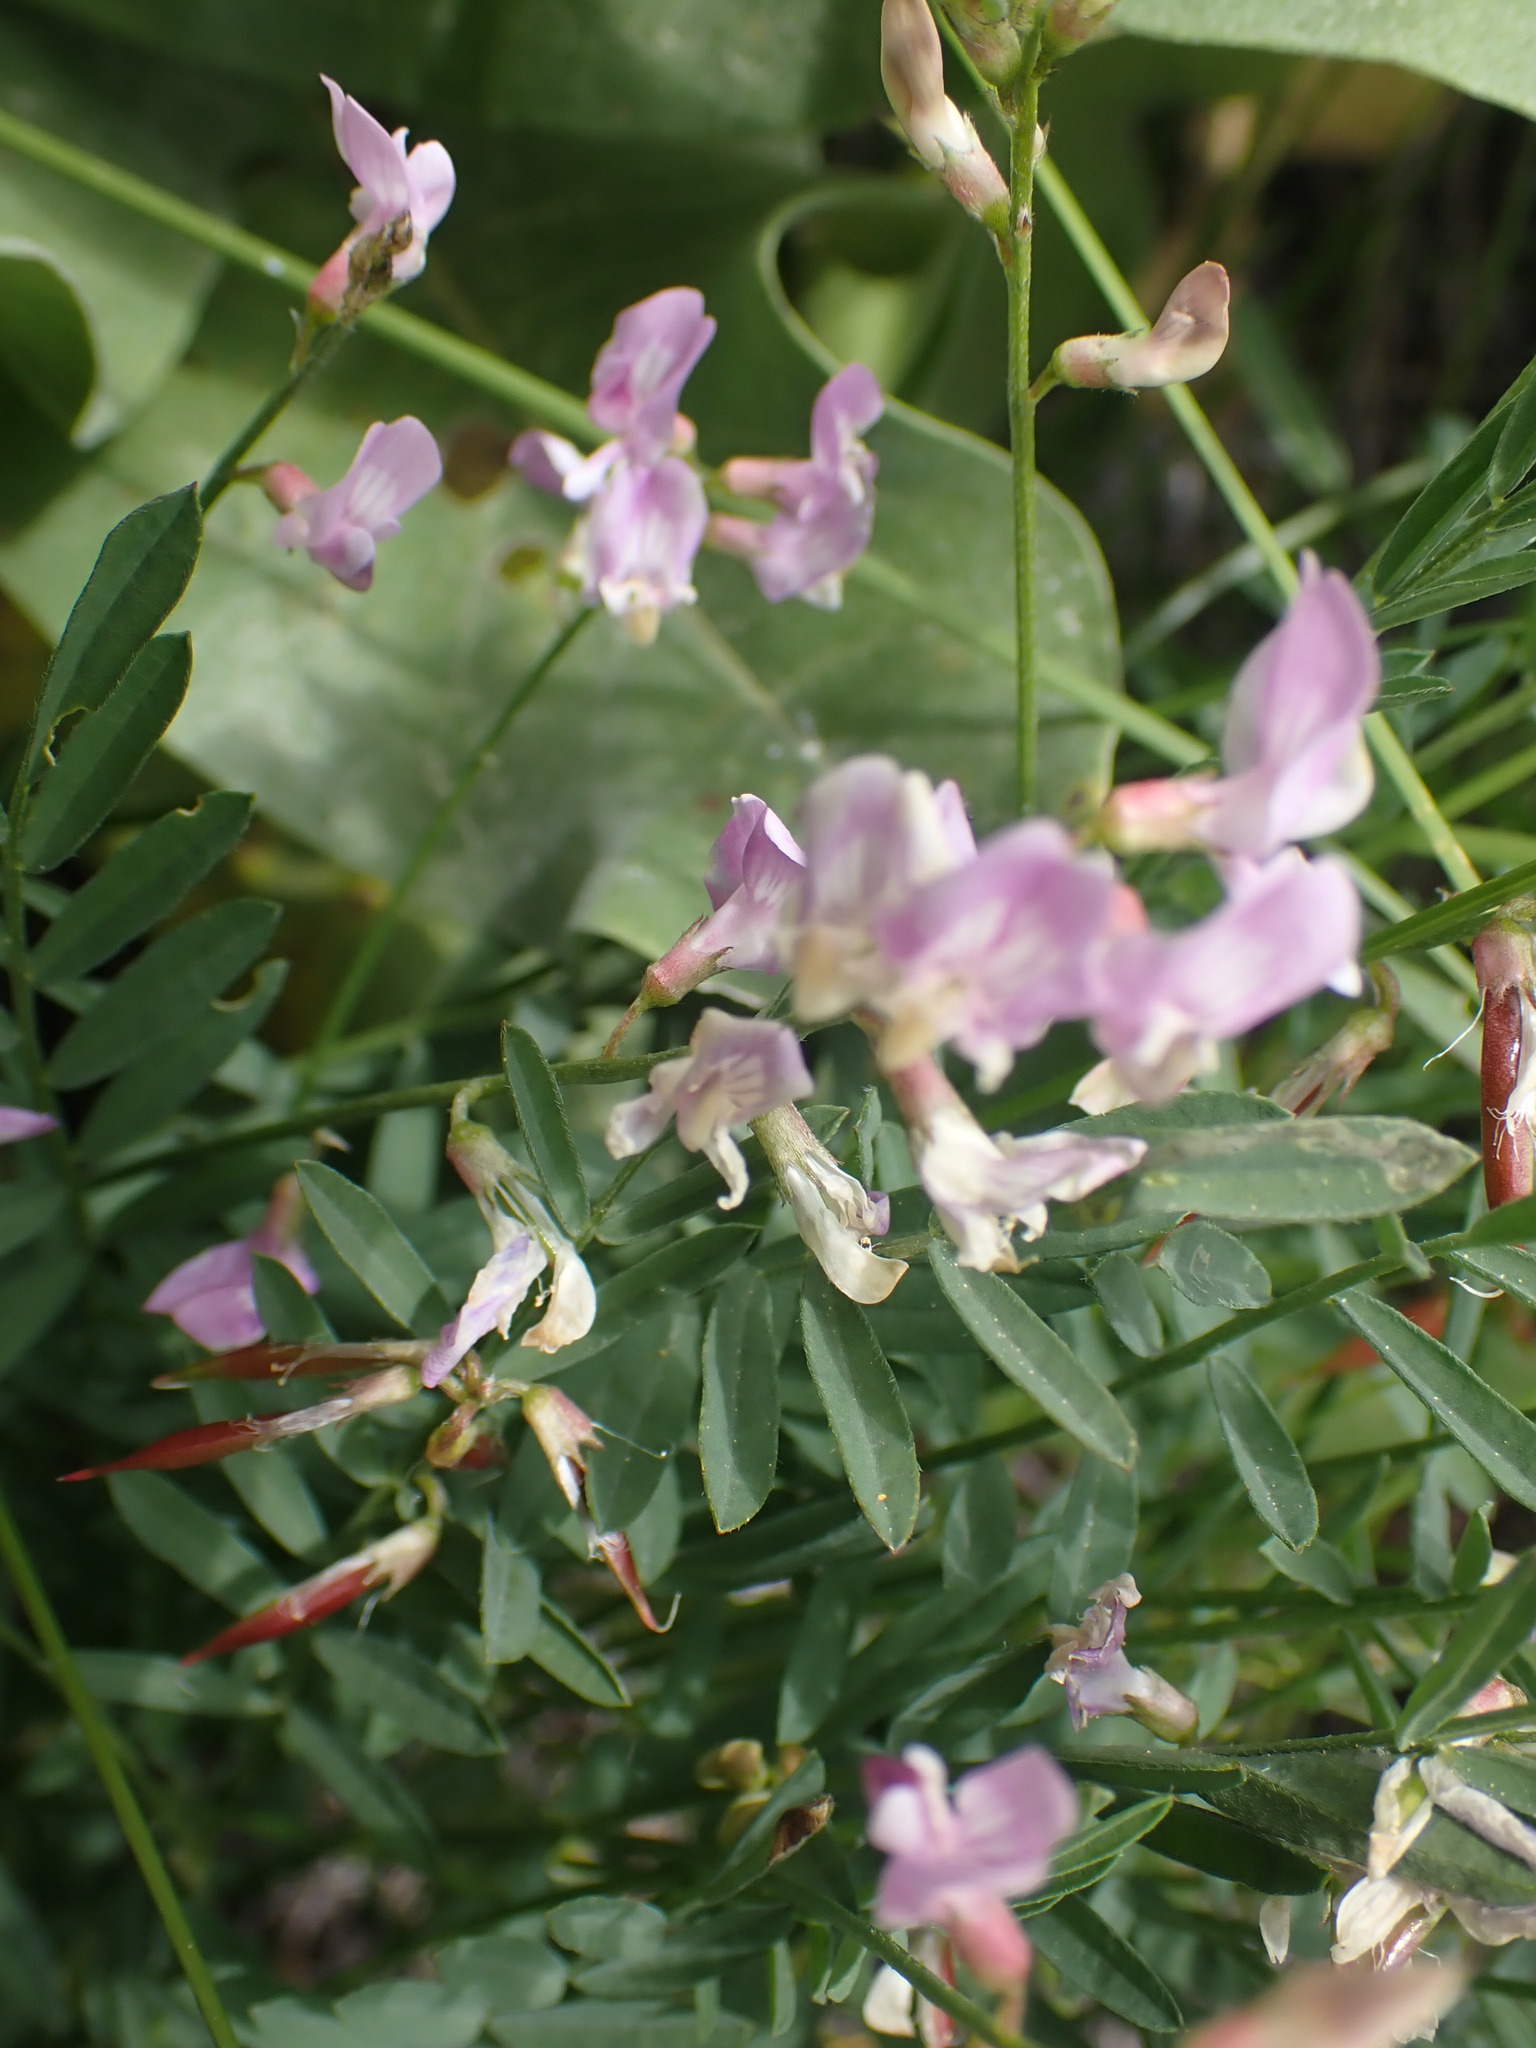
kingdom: Plantae
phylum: Tracheophyta
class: Magnoliopsida
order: Fabales
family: Fabaceae
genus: Astragalus
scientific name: Astragalus miser
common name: Timber milkvetch
